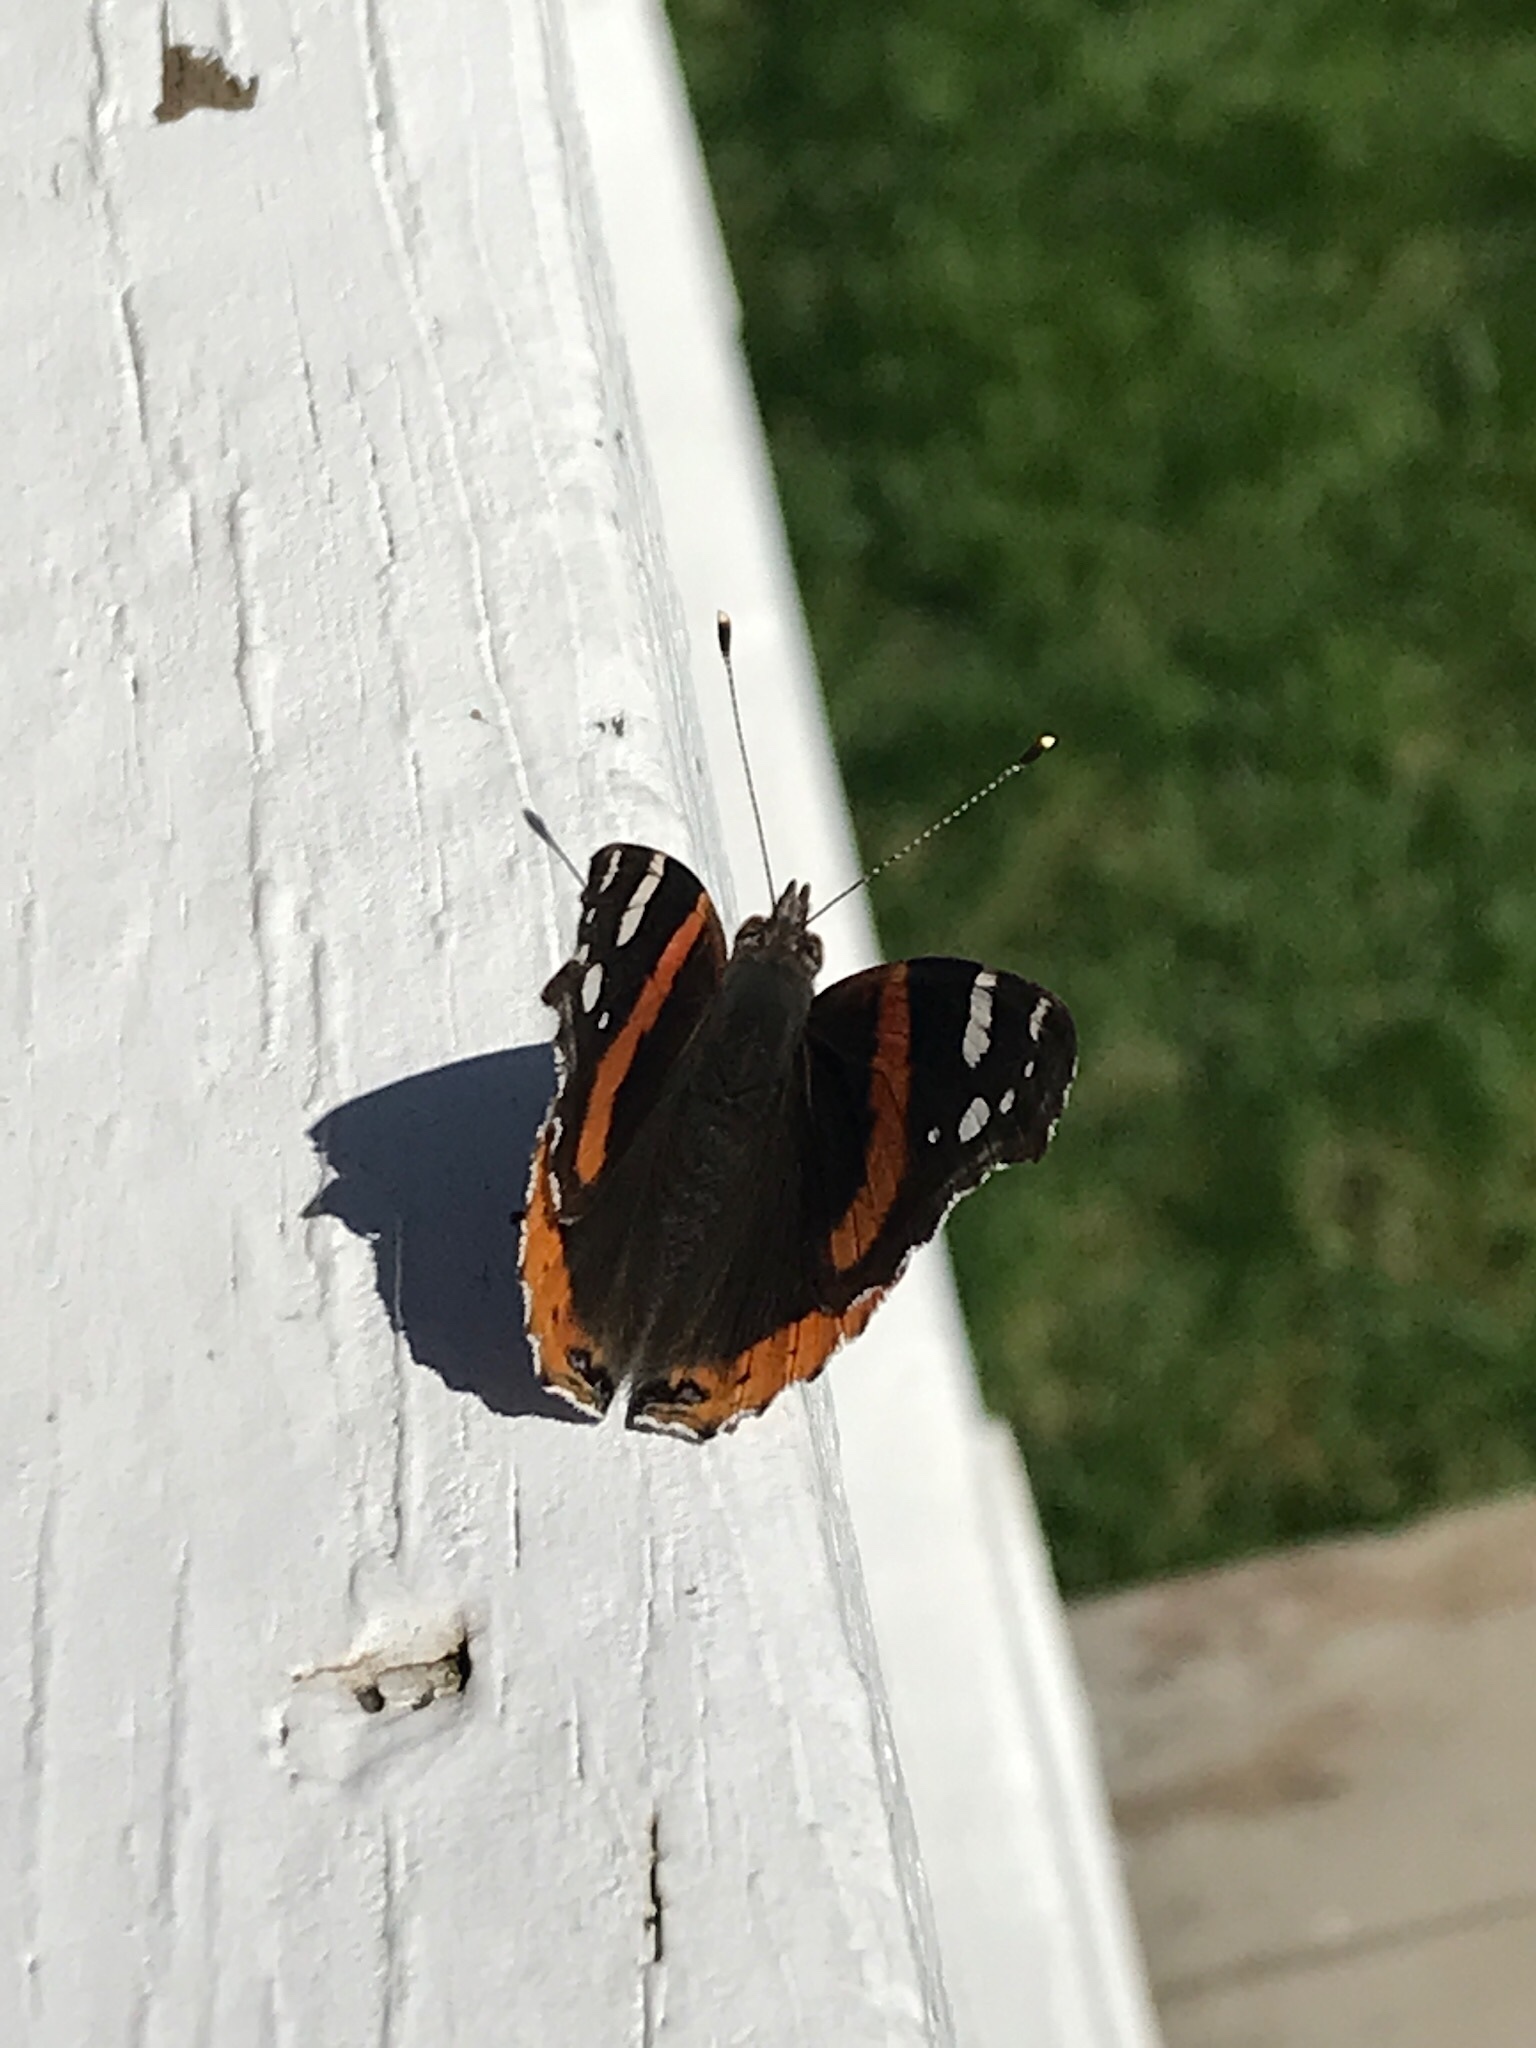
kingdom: Animalia
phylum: Arthropoda
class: Insecta
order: Lepidoptera
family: Nymphalidae
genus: Vanessa
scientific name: Vanessa atalanta
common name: Red admiral
